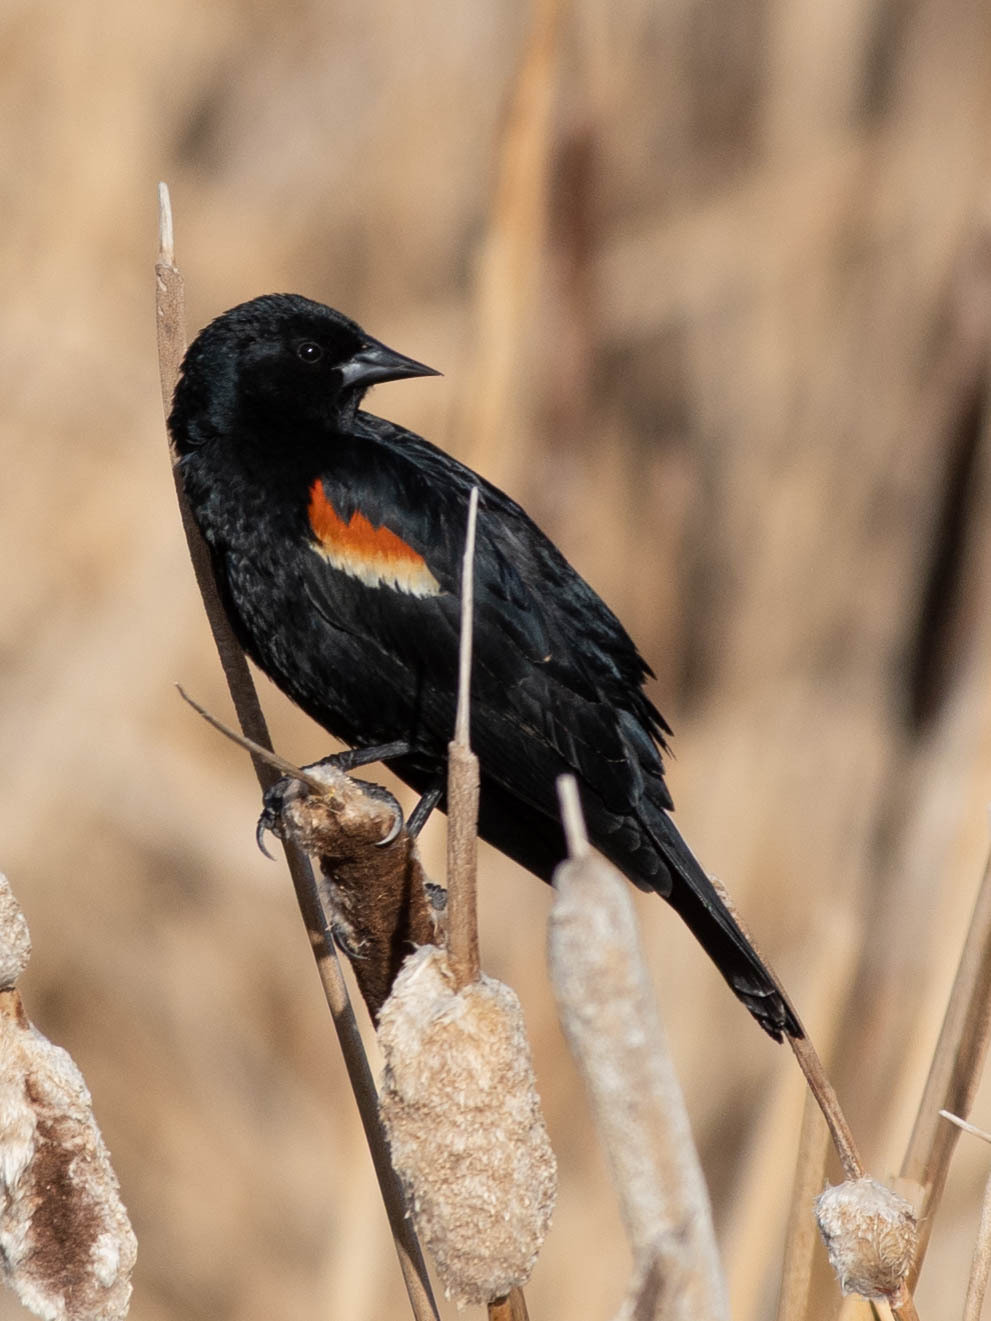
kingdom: Animalia
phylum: Chordata
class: Aves
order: Passeriformes
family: Icteridae
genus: Agelaius
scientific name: Agelaius phoeniceus
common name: Red-winged blackbird
